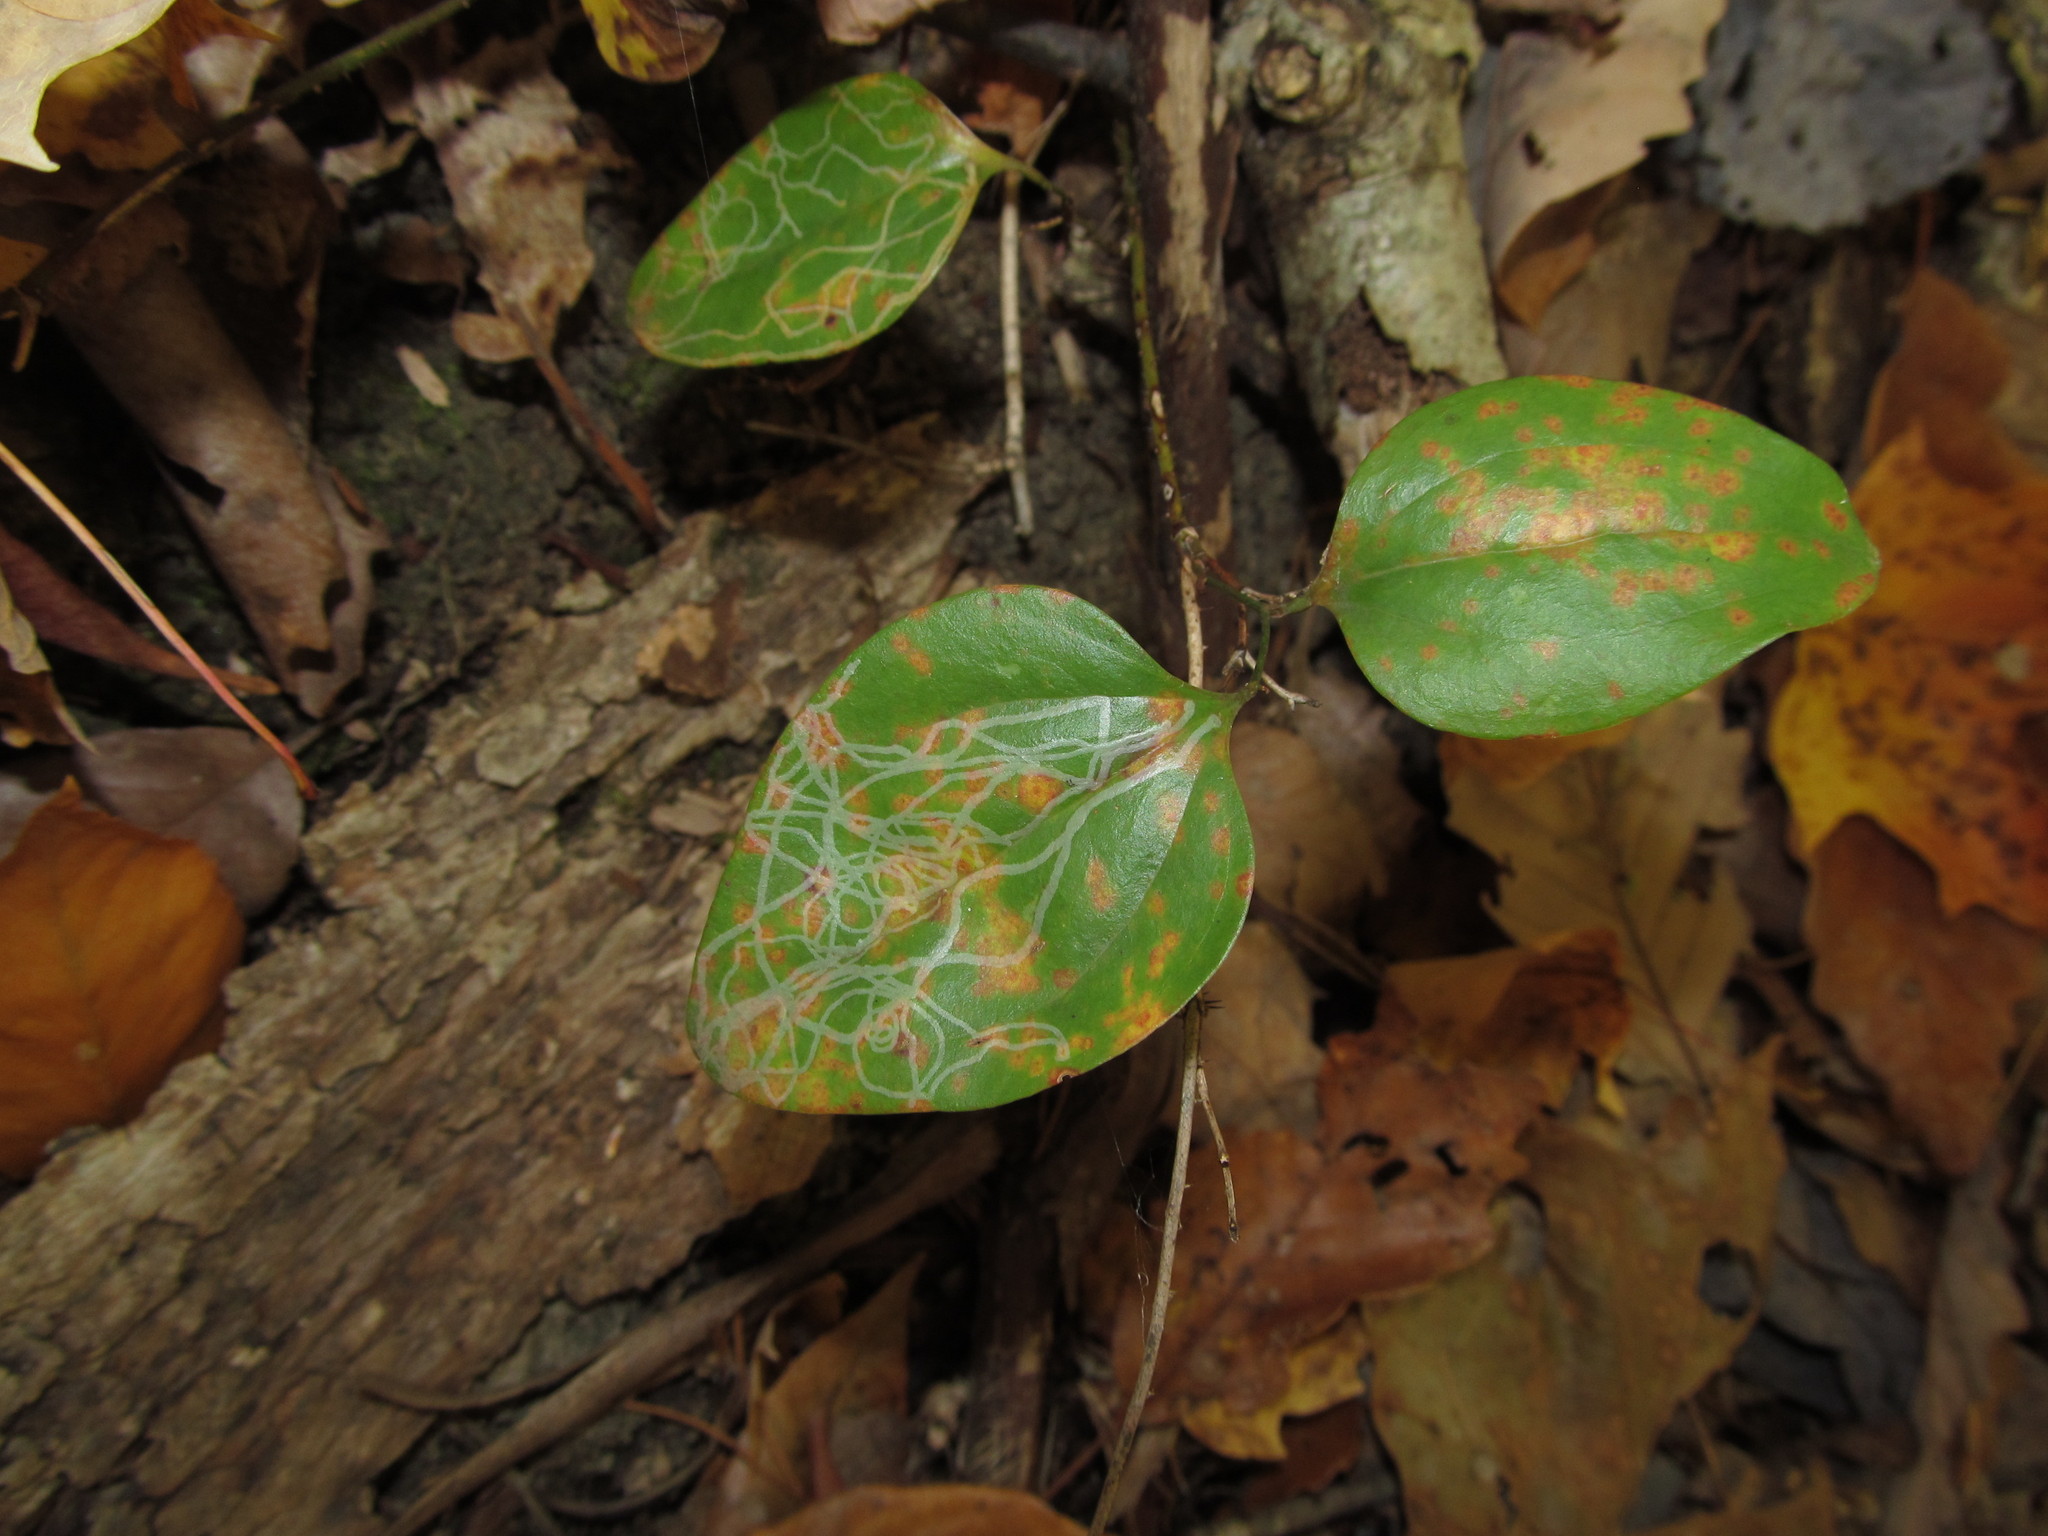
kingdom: Plantae
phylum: Tracheophyta
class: Liliopsida
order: Liliales
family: Smilacaceae
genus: Smilax
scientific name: Smilax rotundifolia
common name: Bullbriar
